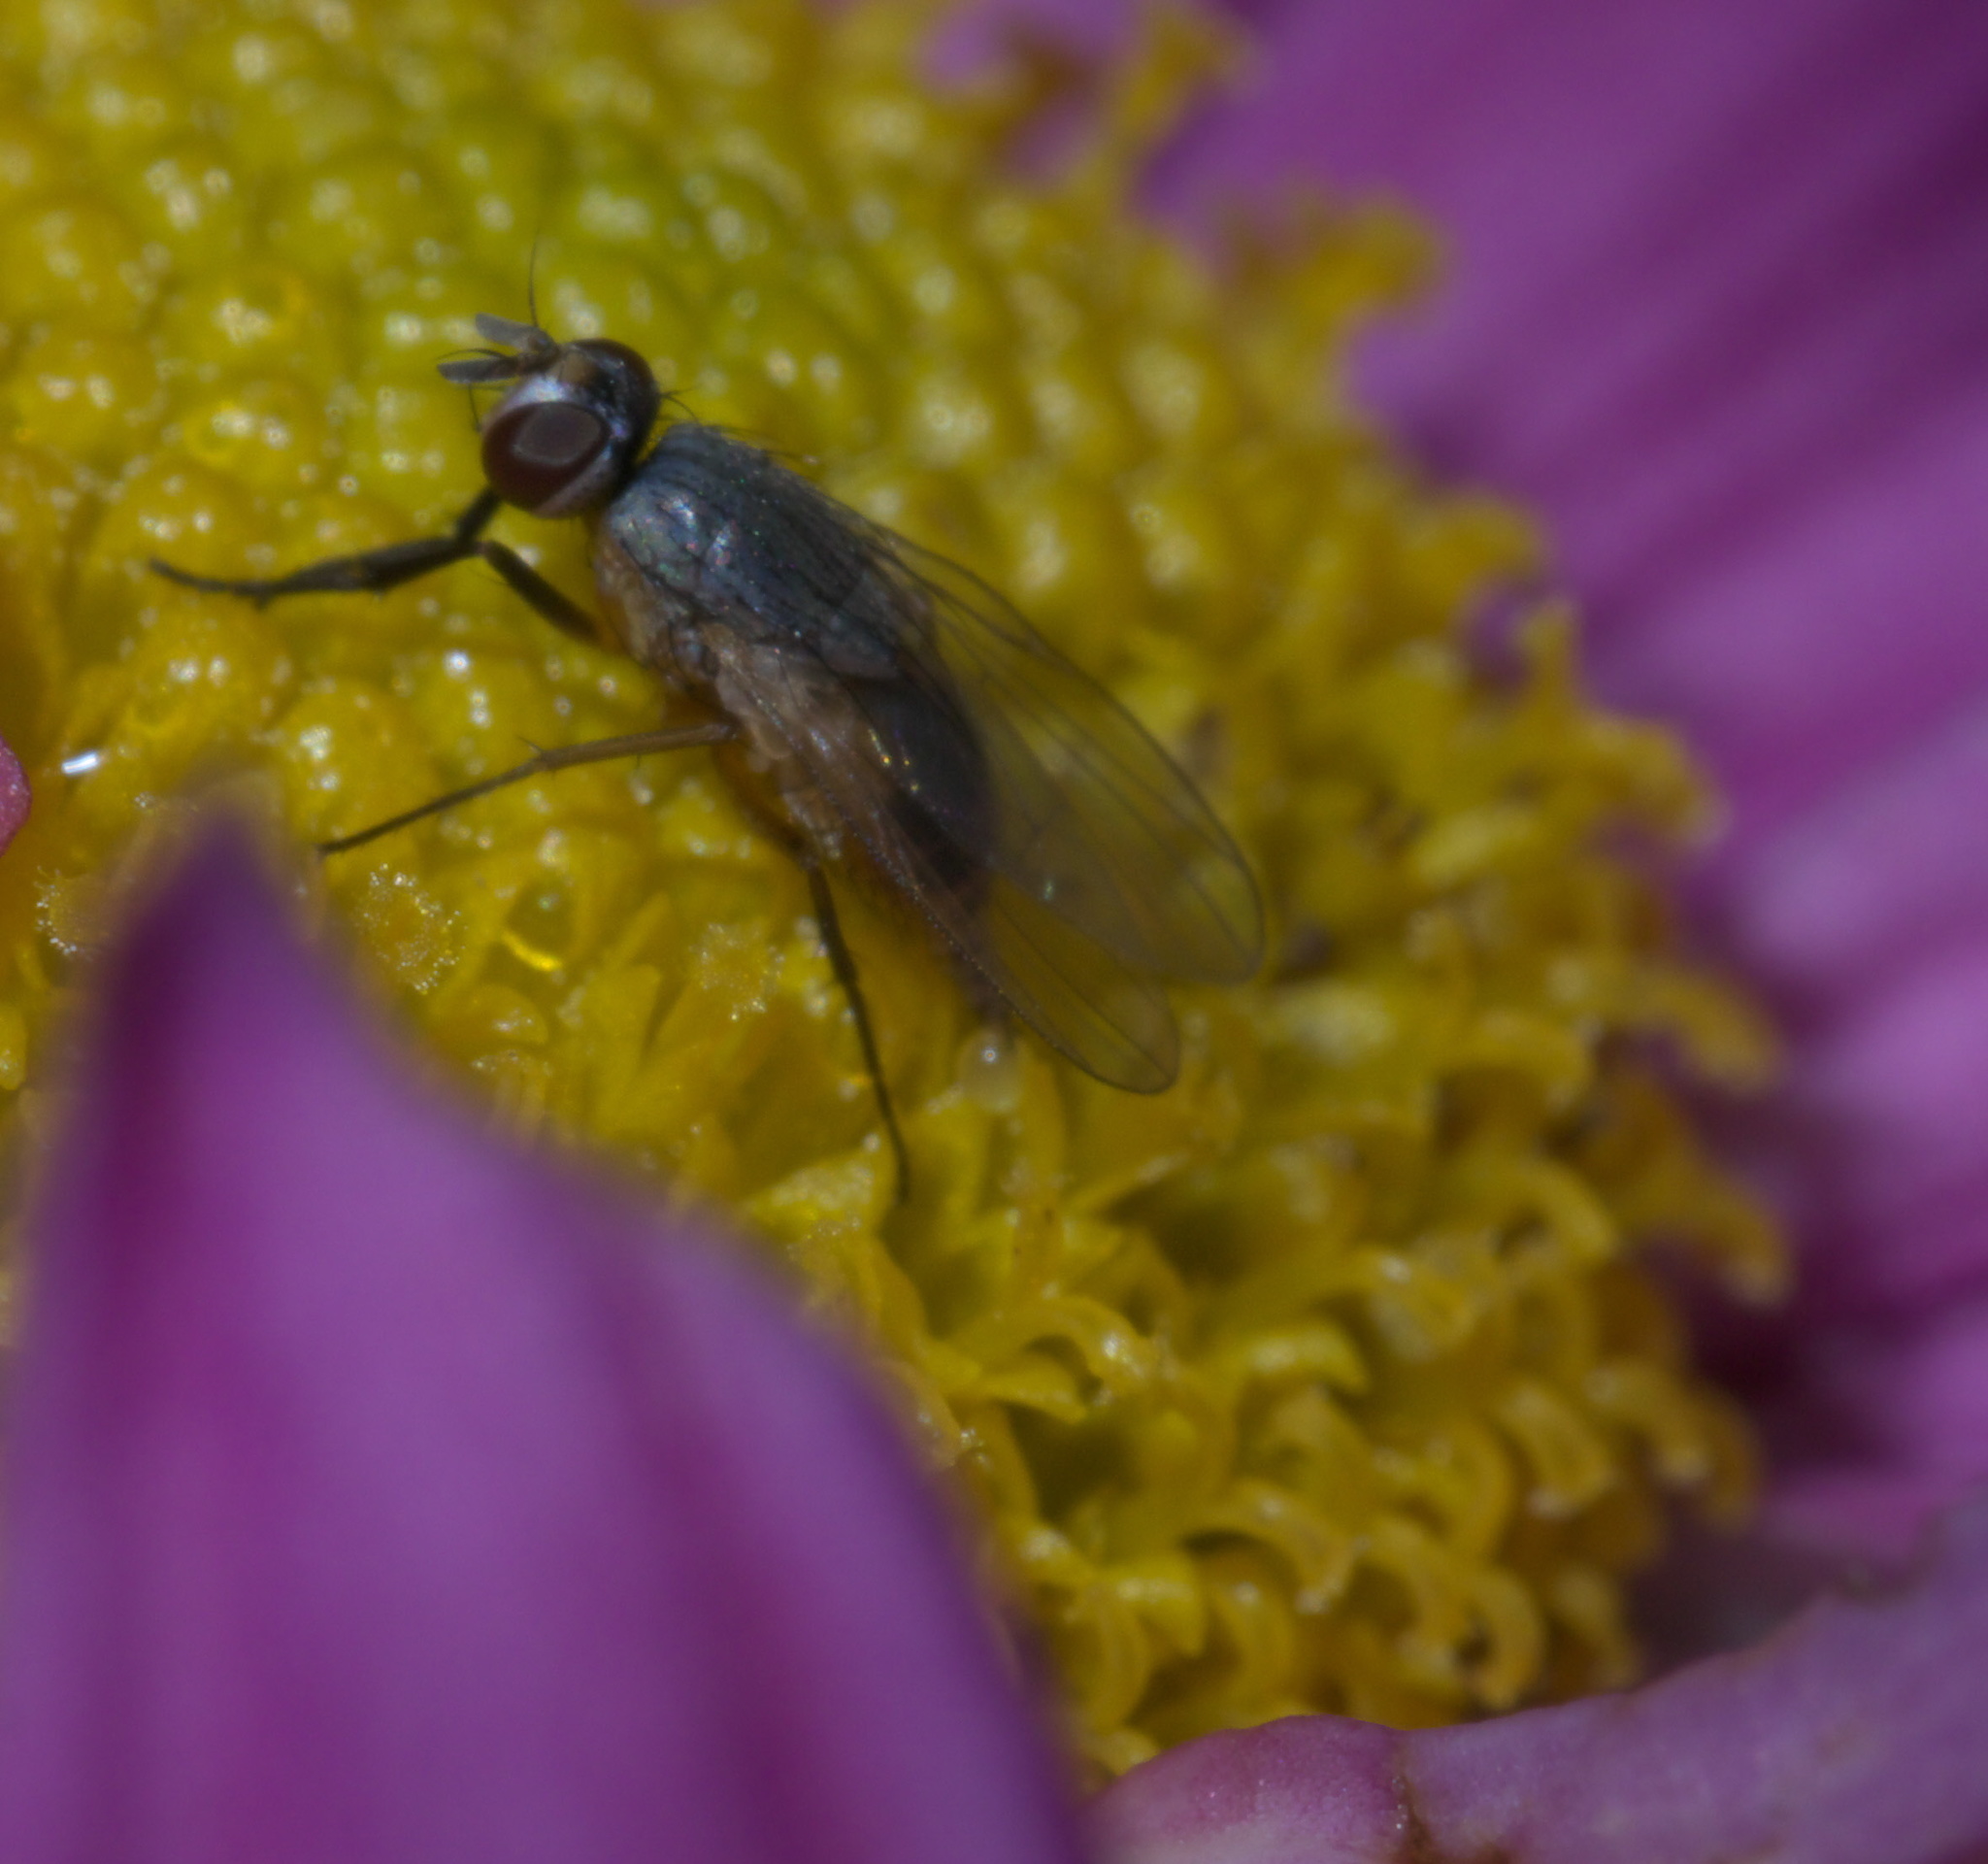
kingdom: Animalia
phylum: Arthropoda
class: Insecta
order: Diptera
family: Muscidae
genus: Atherigona
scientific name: Atherigona reversura
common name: Bermudagrass stem maggot
